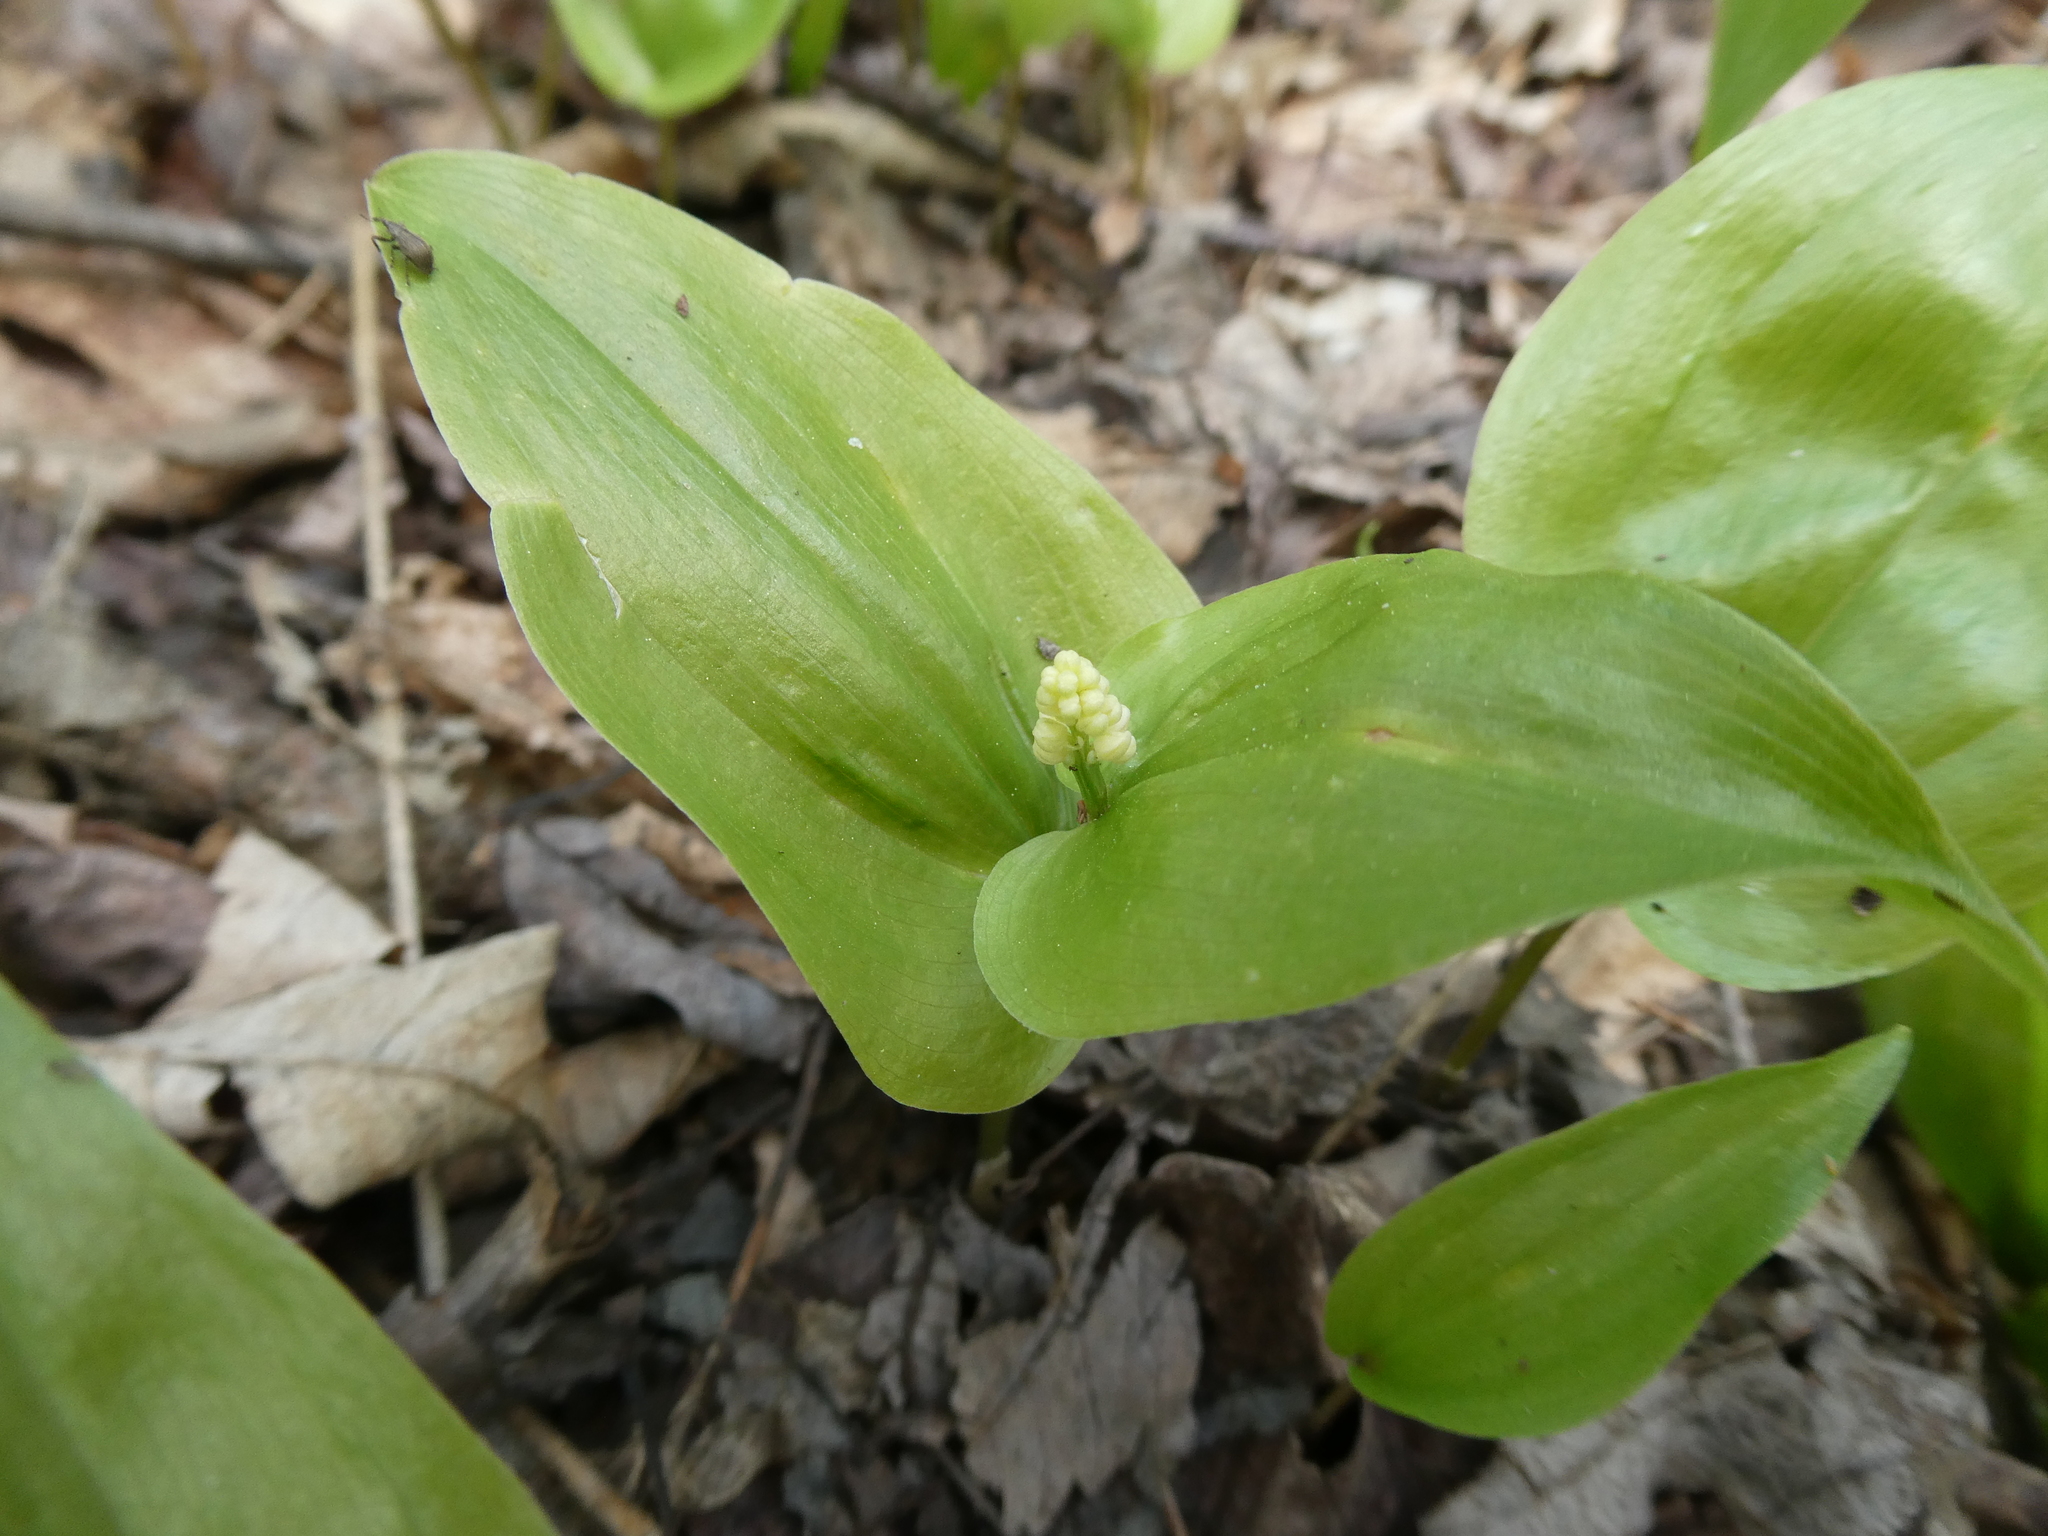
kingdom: Plantae
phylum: Tracheophyta
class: Liliopsida
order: Asparagales
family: Asparagaceae
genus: Maianthemum
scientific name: Maianthemum canadense
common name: False lily-of-the-valley
